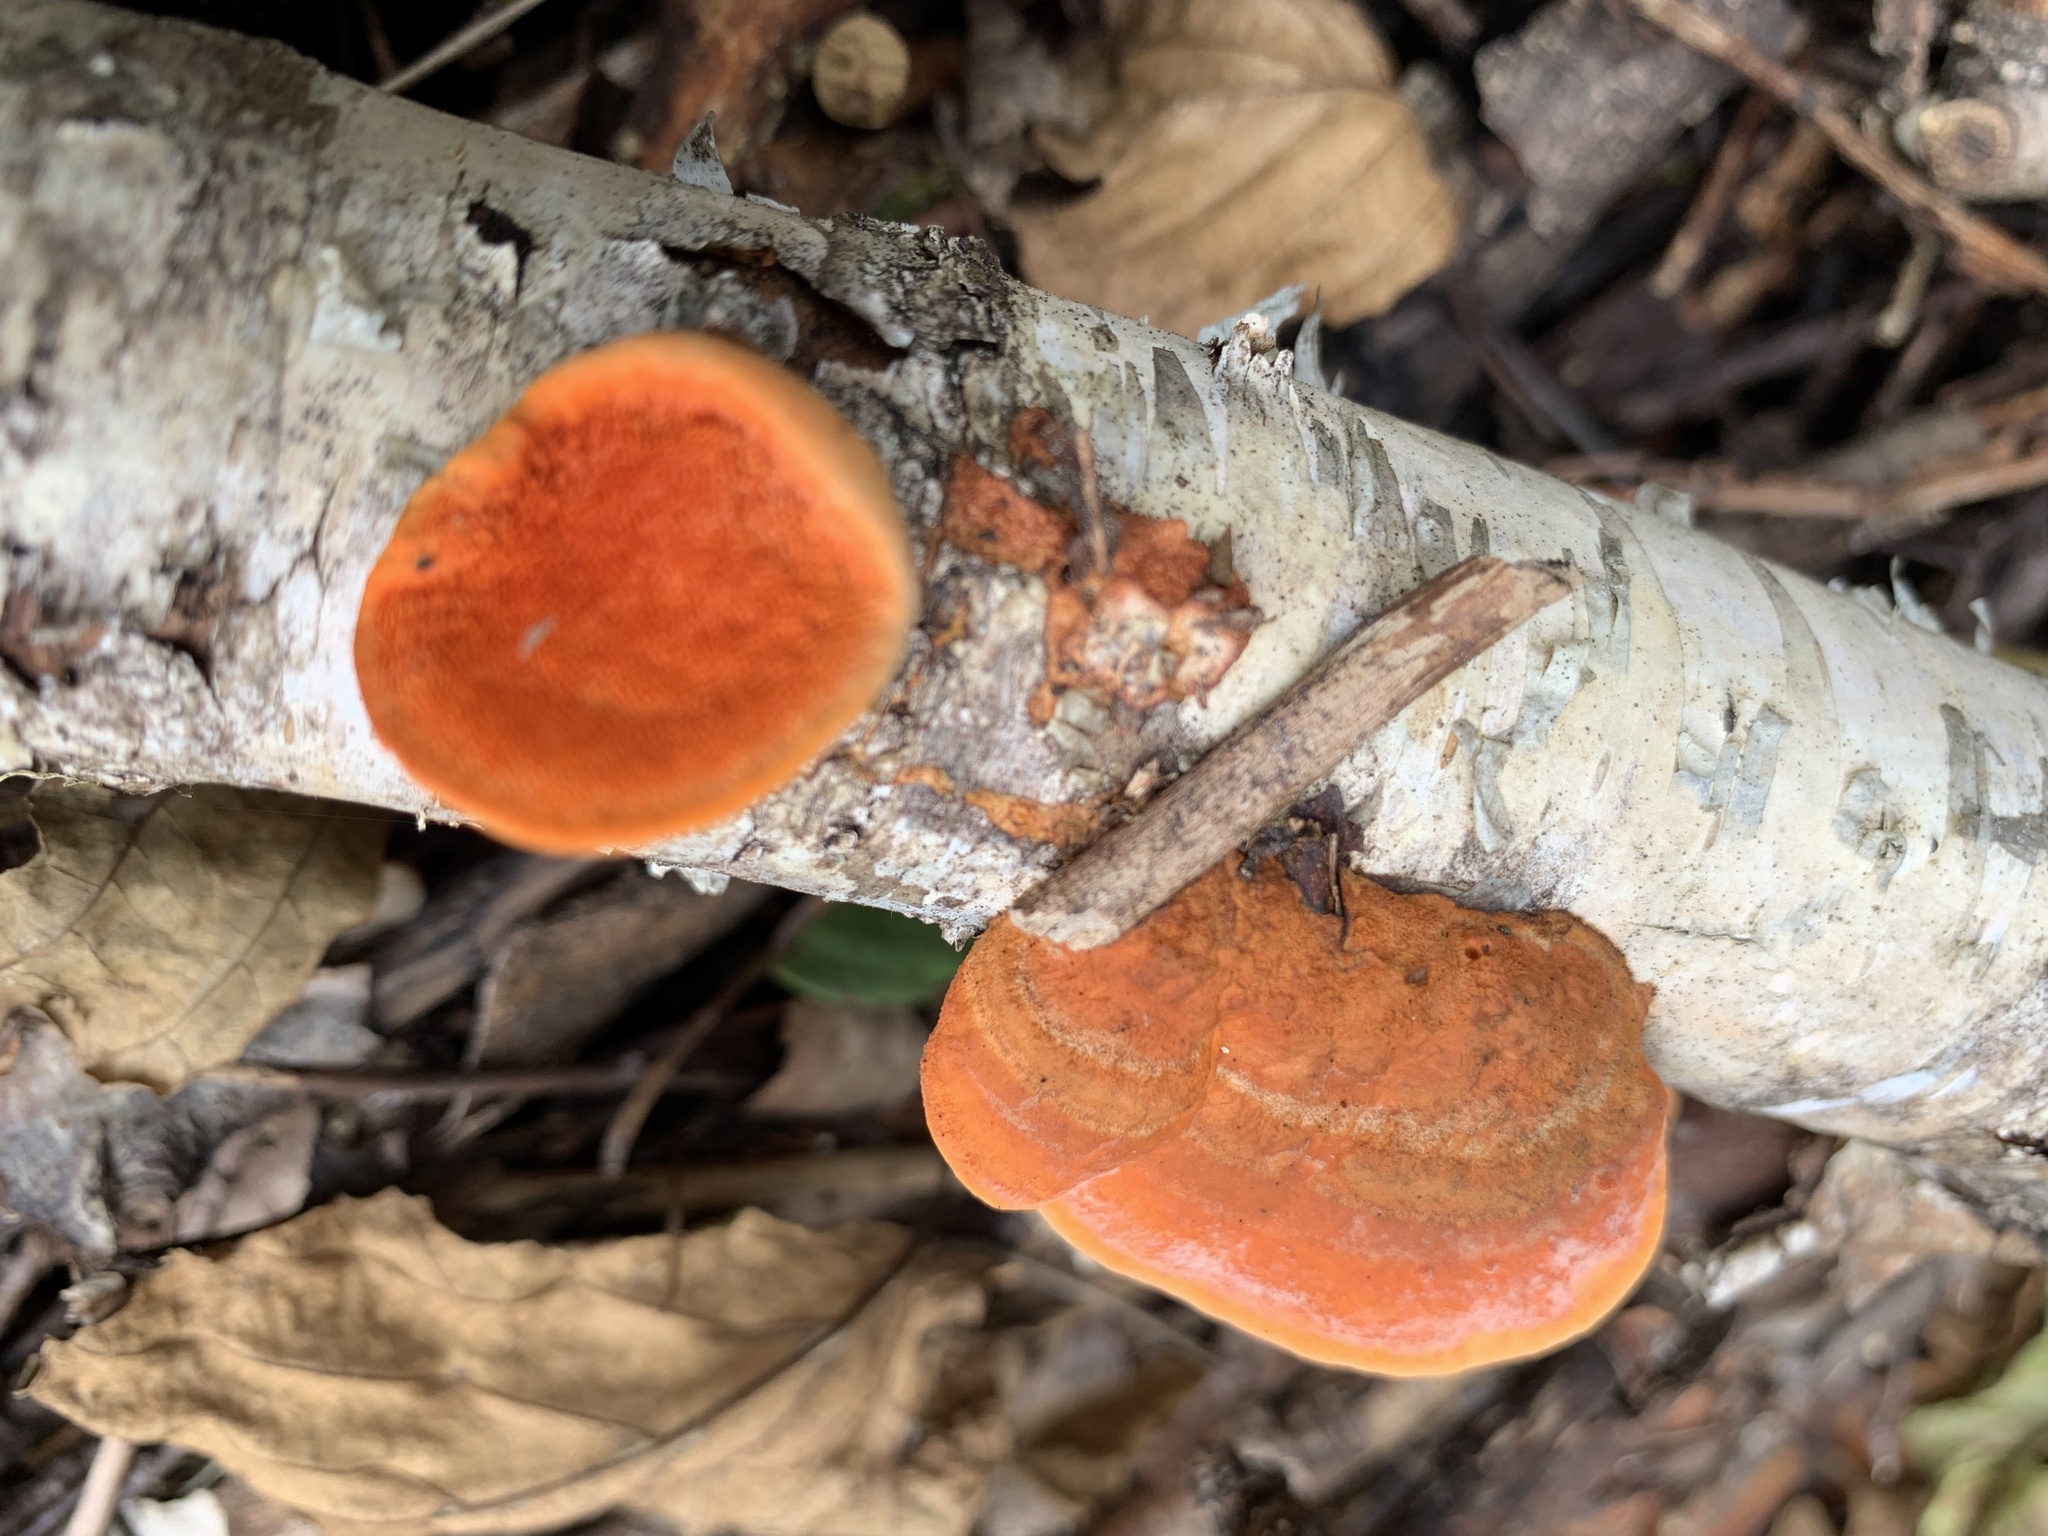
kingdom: Fungi
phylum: Basidiomycota
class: Agaricomycetes
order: Polyporales
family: Polyporaceae
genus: Trametes
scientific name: Trametes cinnabarina
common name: Northern cinnabar polypore
